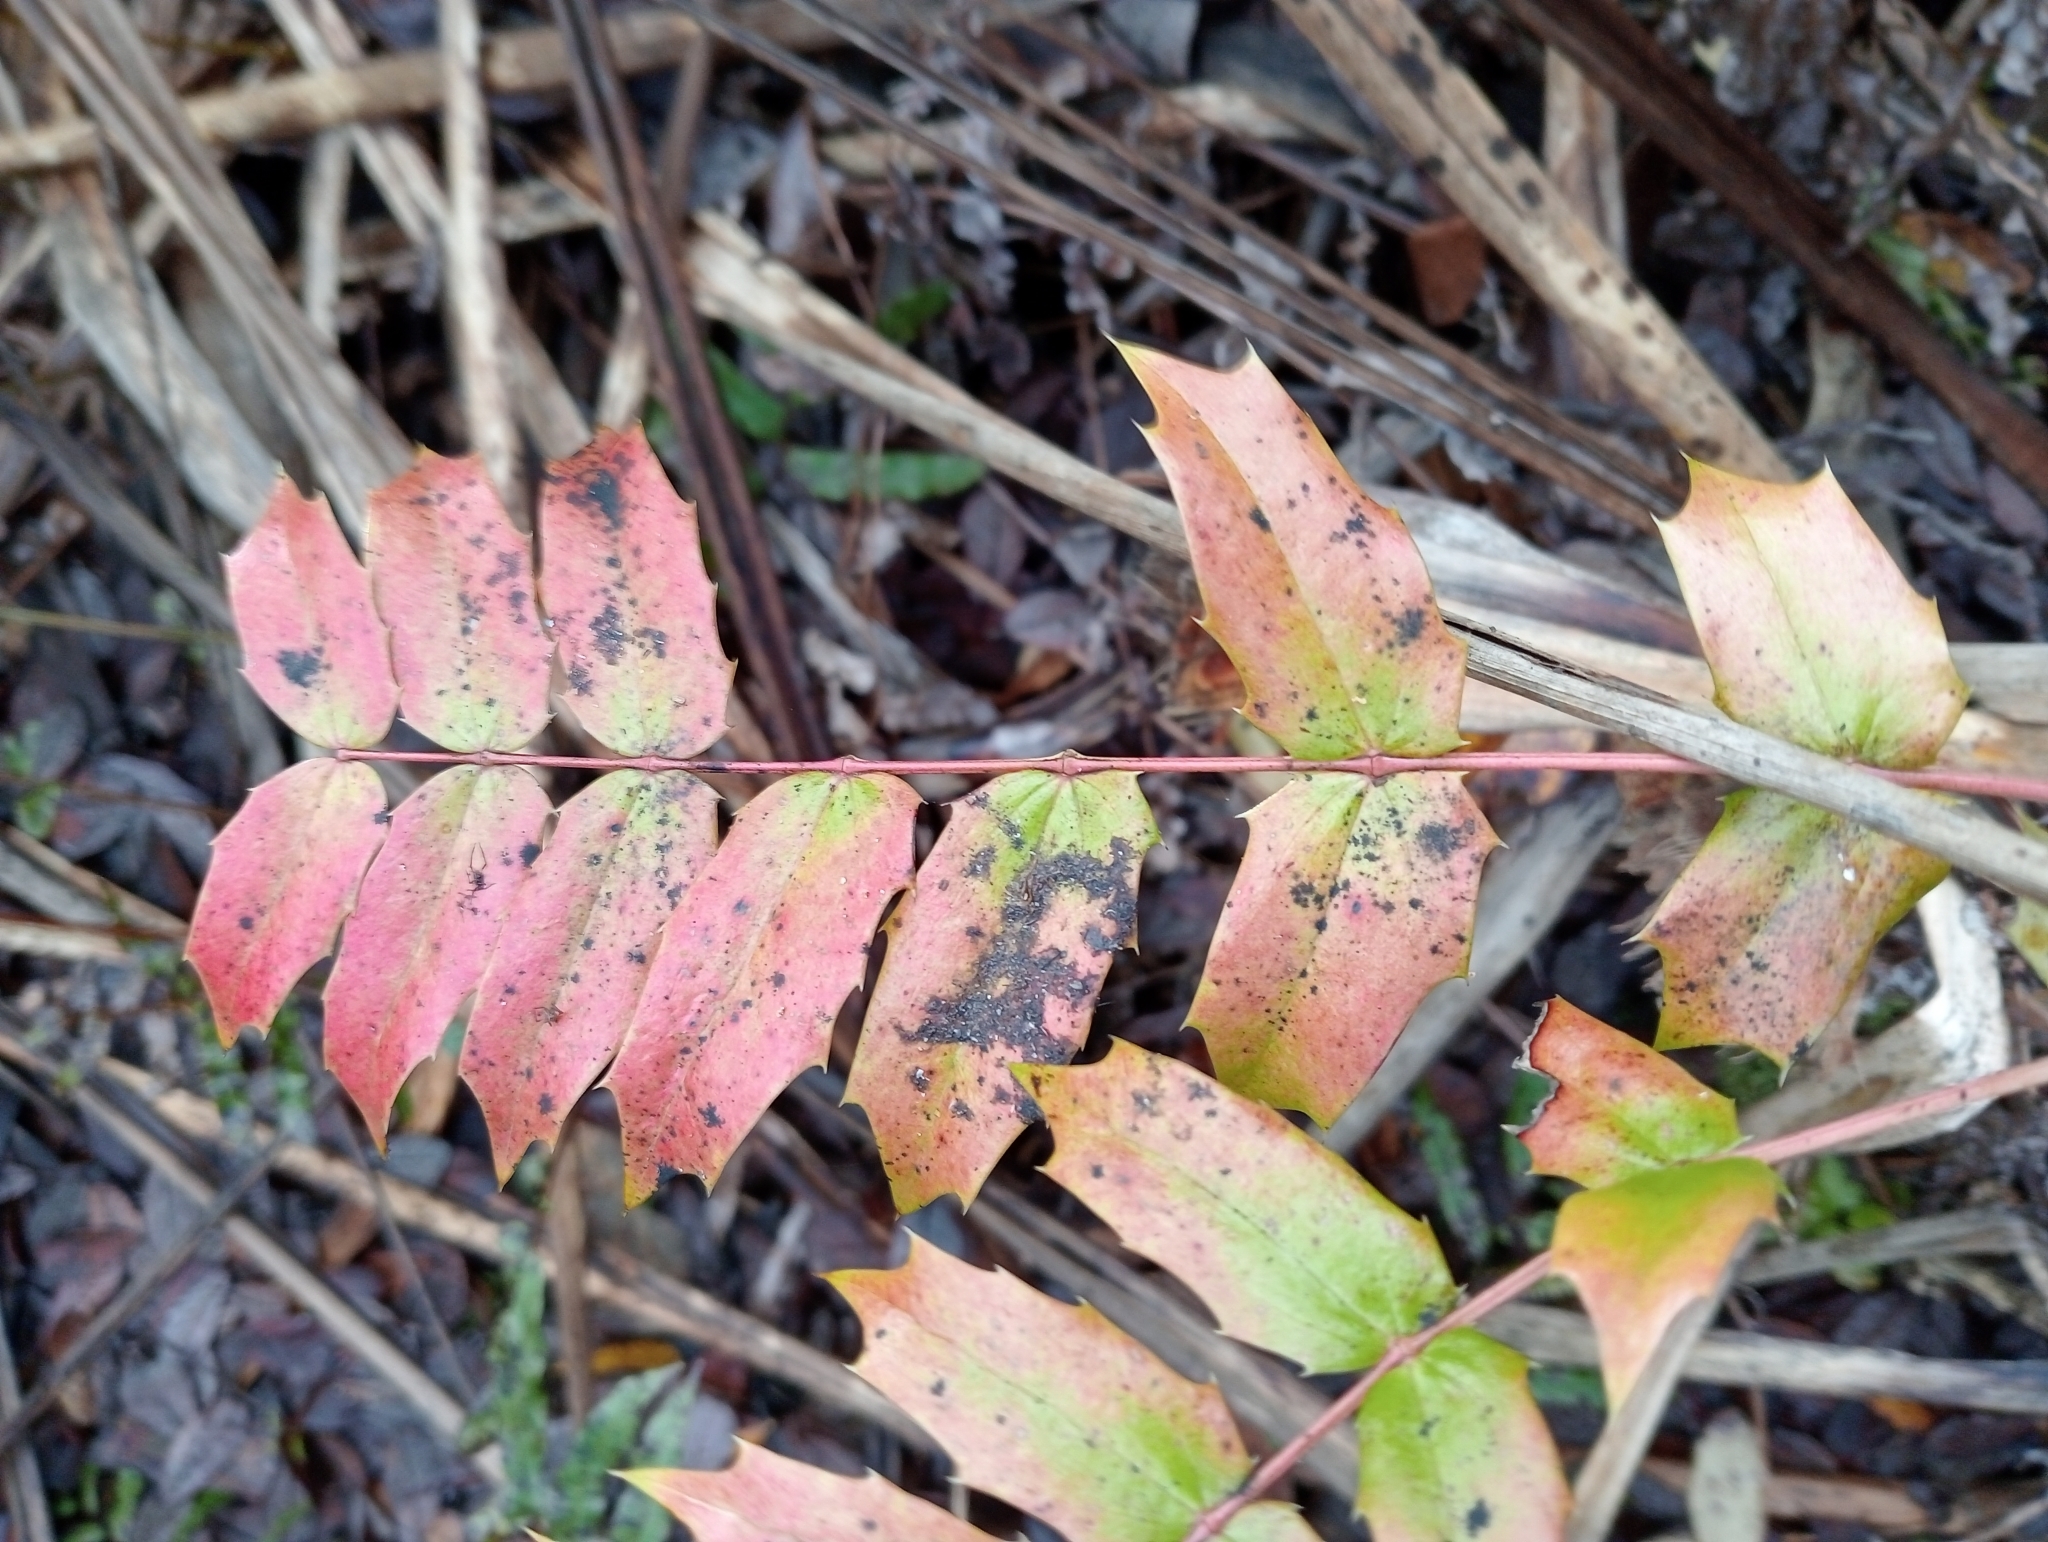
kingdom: Plantae
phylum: Tracheophyta
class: Magnoliopsida
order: Ranunculales
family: Berberidaceae
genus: Mahonia
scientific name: Mahonia oiwakensis
